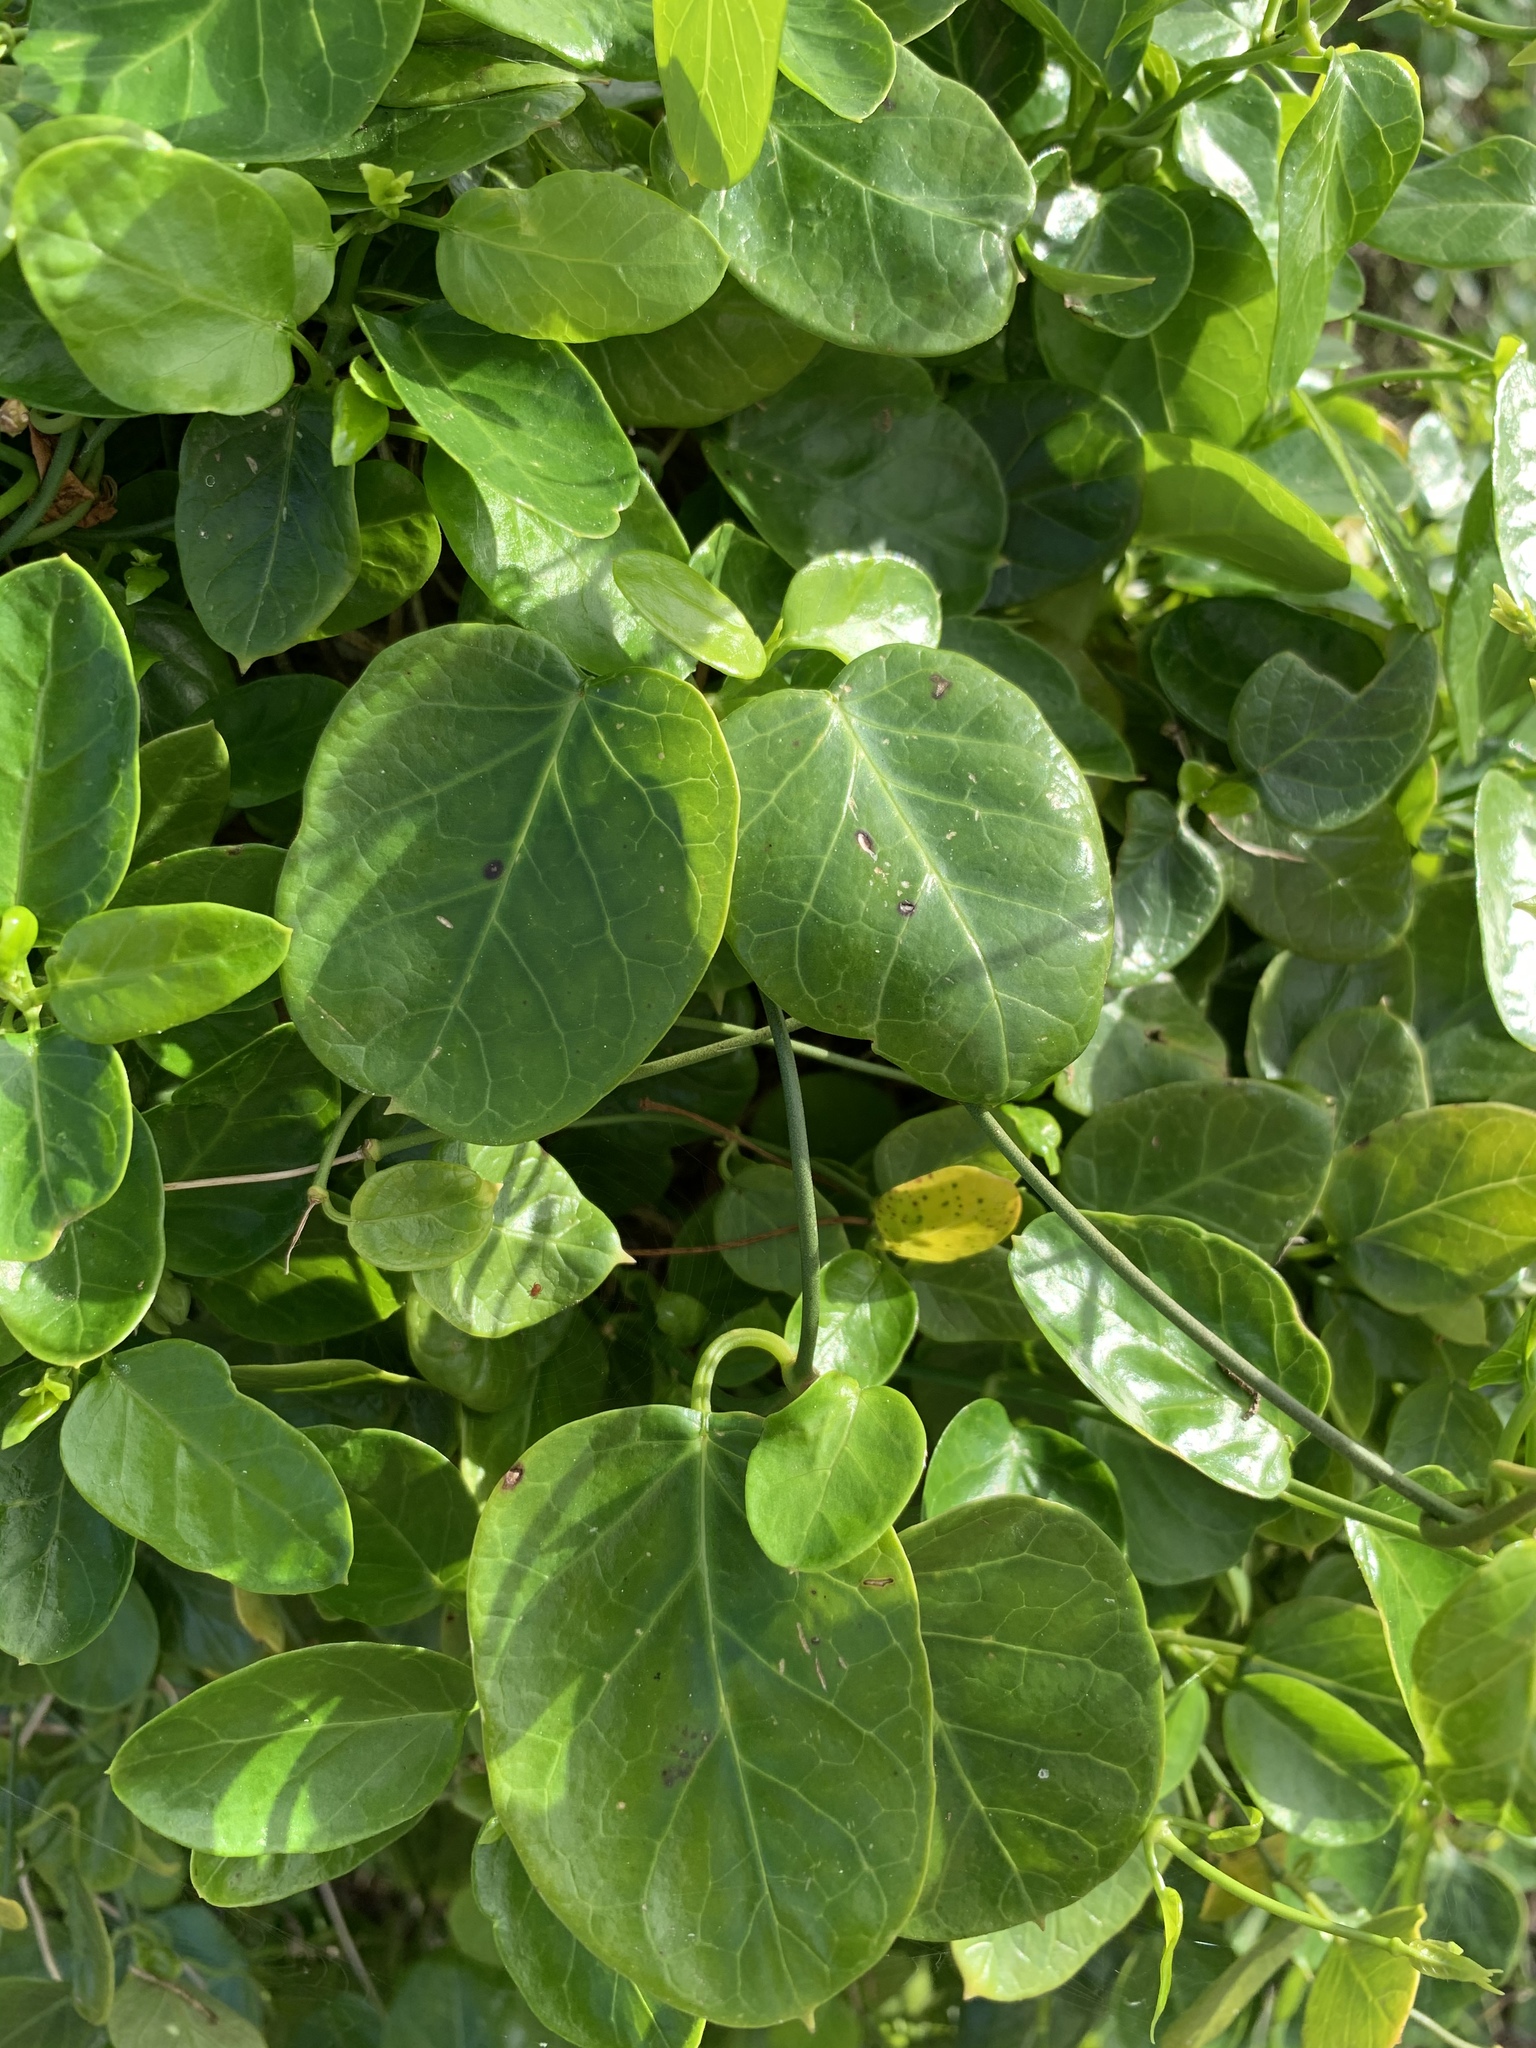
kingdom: Plantae
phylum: Tracheophyta
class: Magnoliopsida
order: Gentianales
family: Apocynaceae
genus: Cynanchum
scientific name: Cynanchum obtusifolium
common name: Monkey-rope
